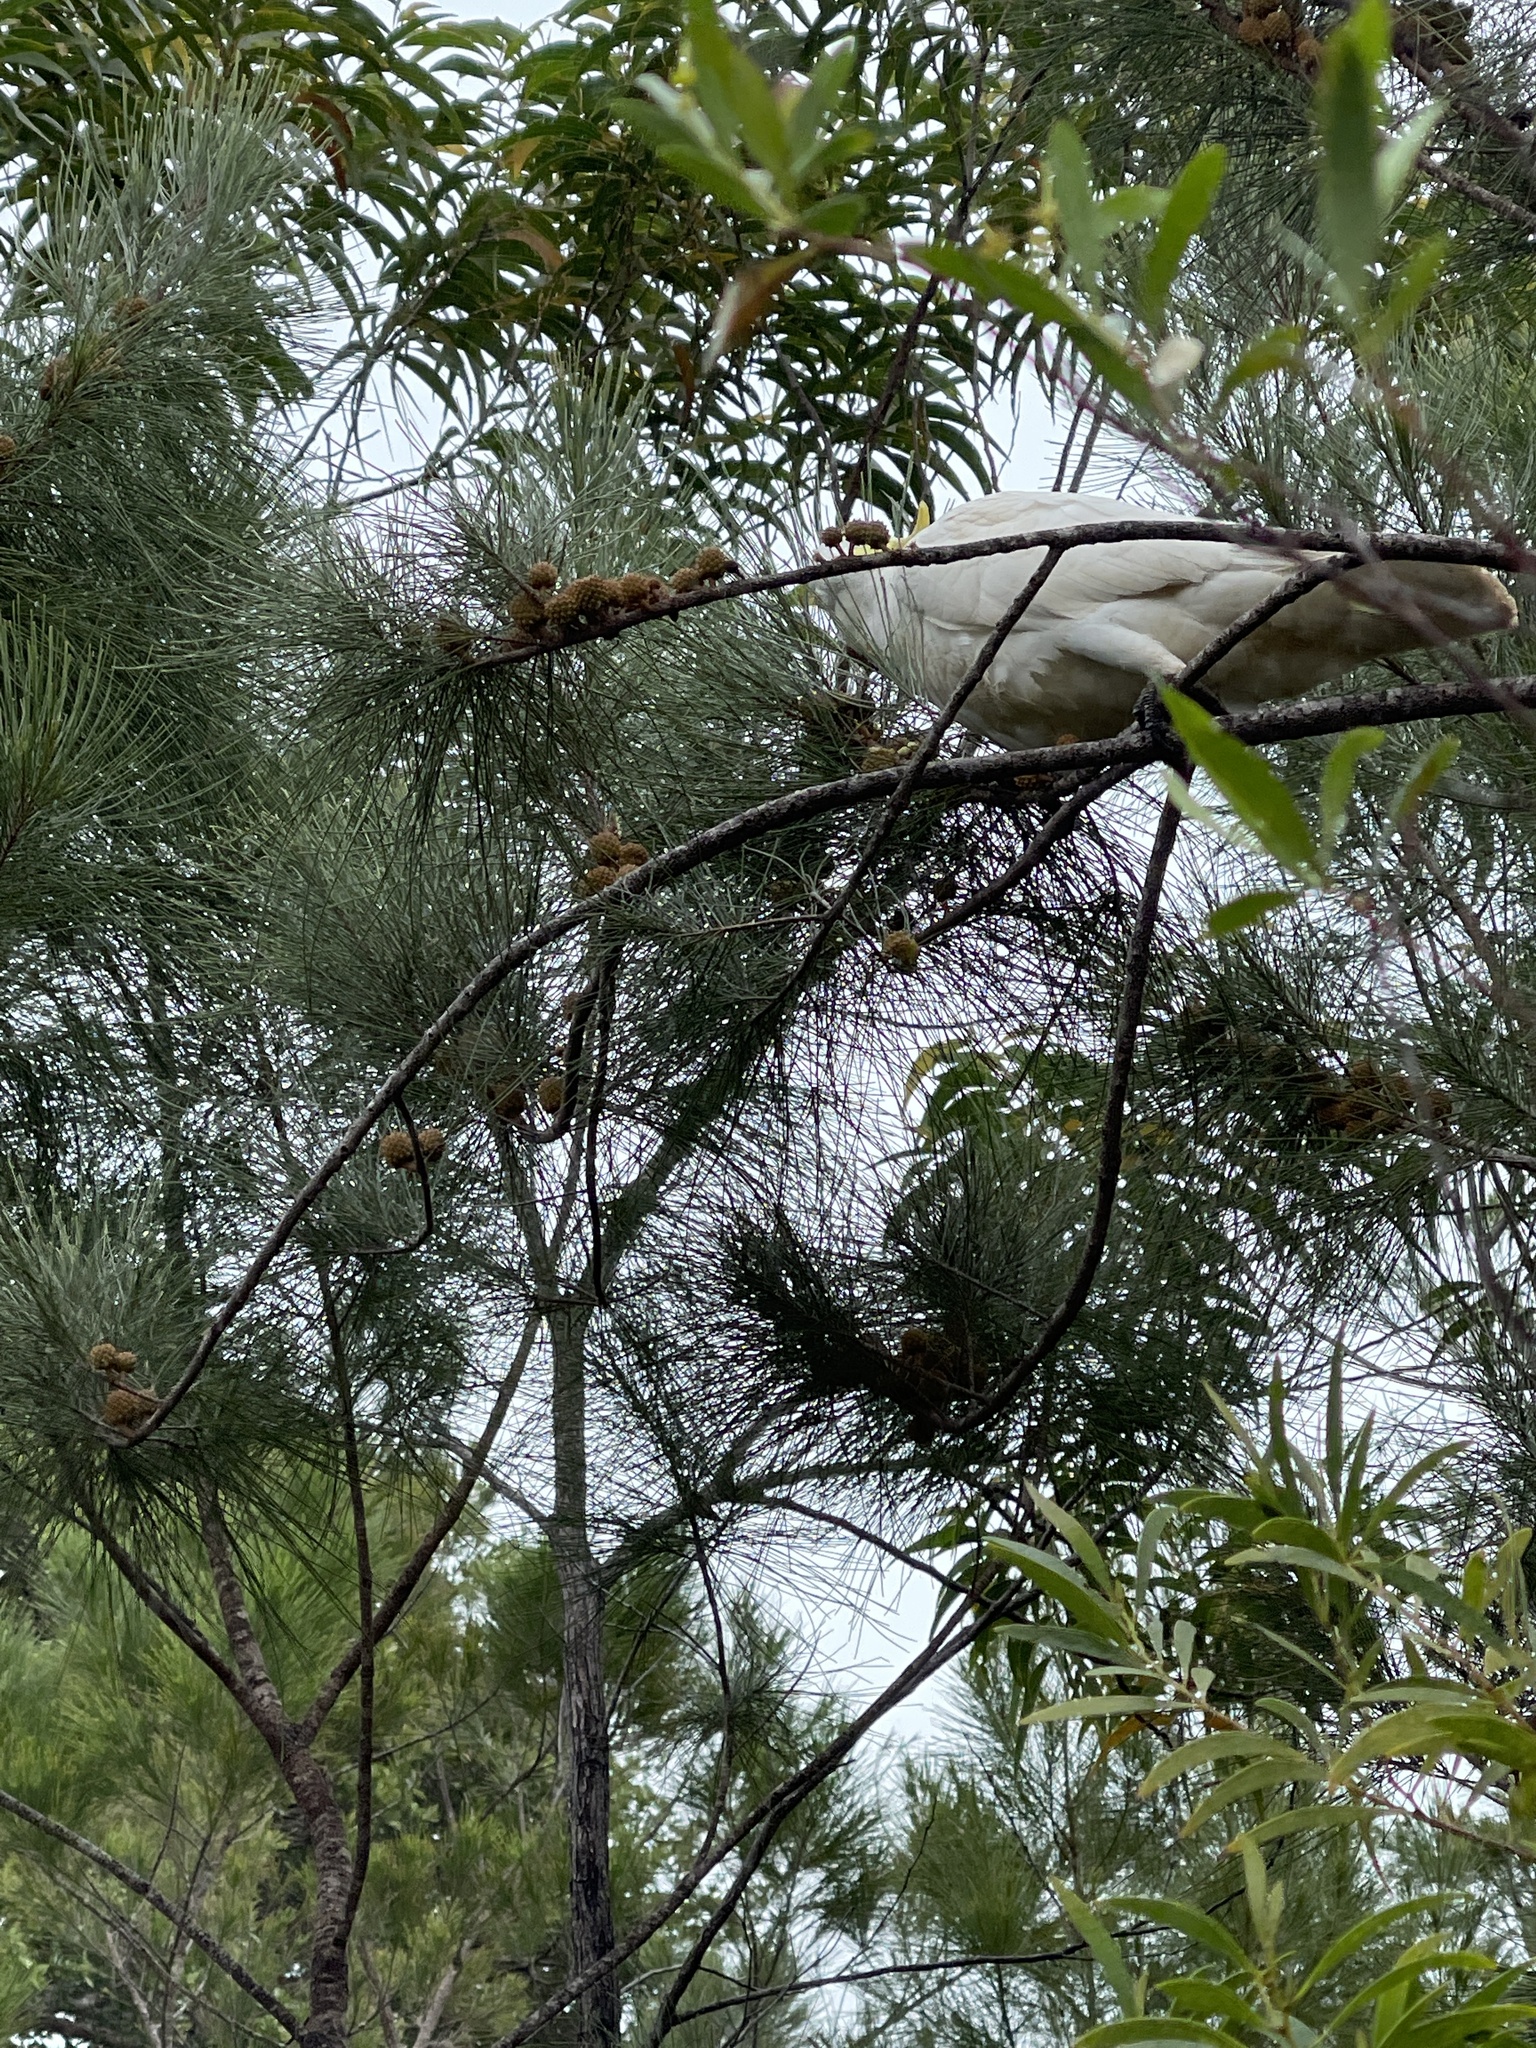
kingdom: Animalia
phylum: Chordata
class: Aves
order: Psittaciformes
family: Psittacidae
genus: Cacatua
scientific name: Cacatua galerita
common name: Sulphur-crested cockatoo
